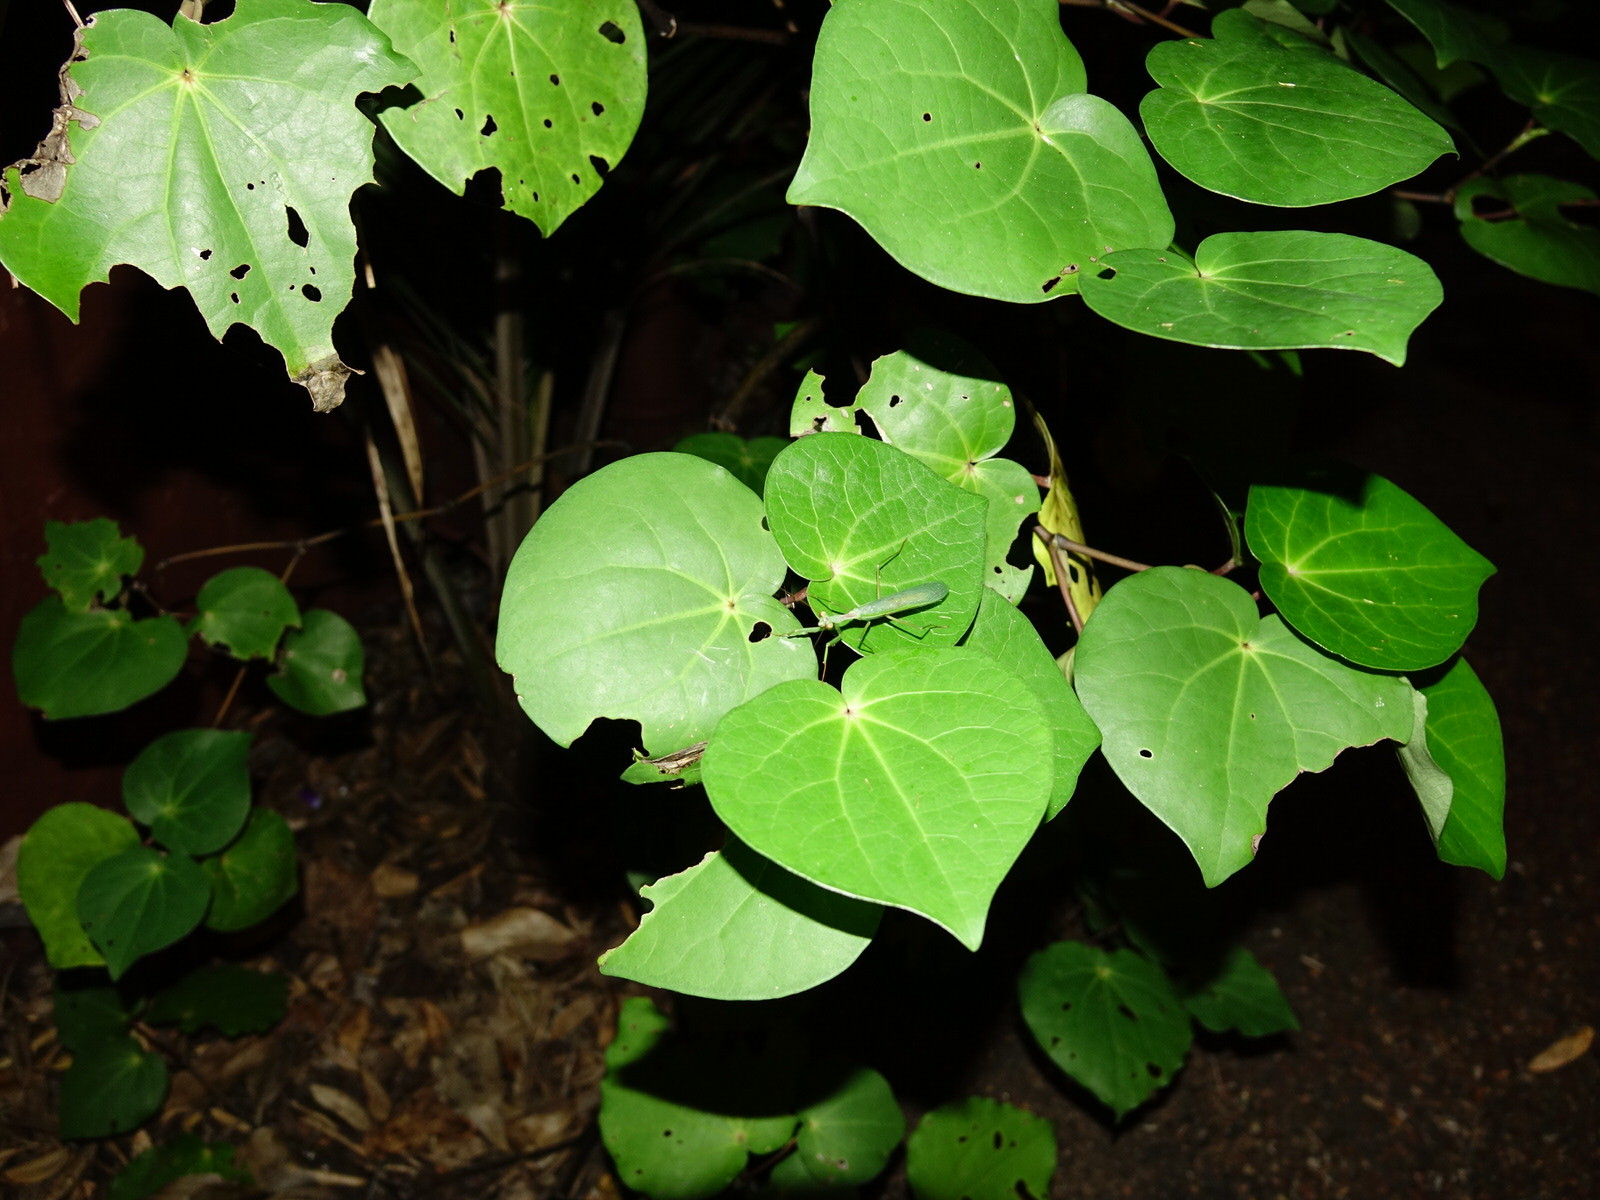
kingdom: Animalia
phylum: Arthropoda
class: Insecta
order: Mantodea
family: Miomantidae
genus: Miomantis
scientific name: Miomantis caffra
